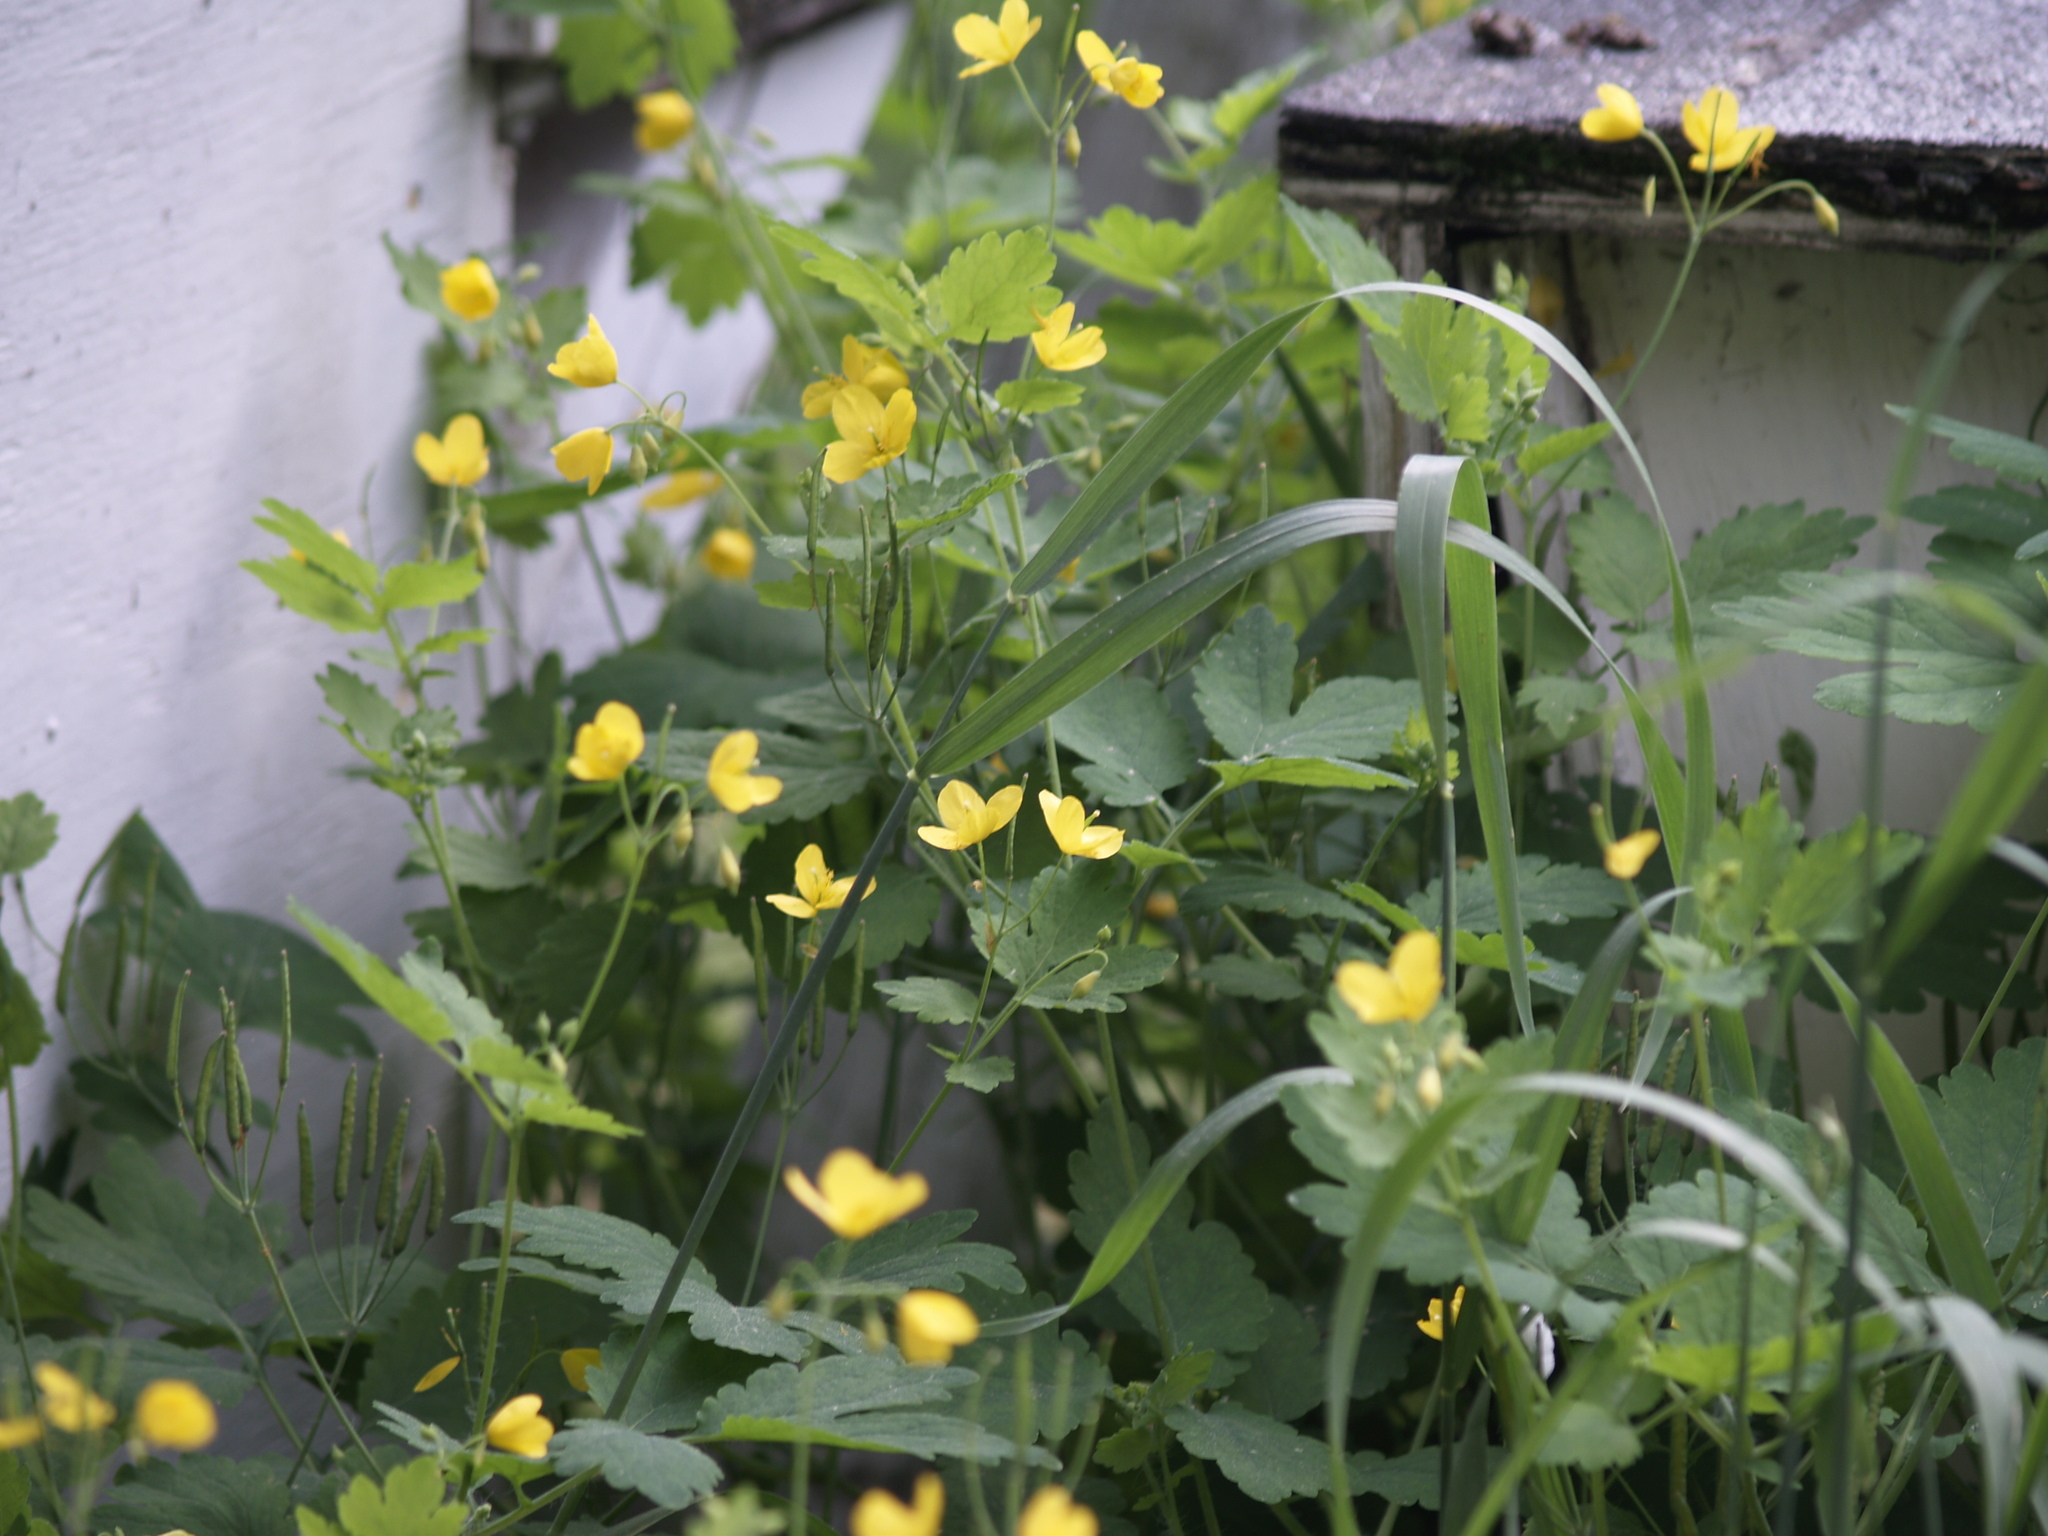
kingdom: Plantae
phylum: Tracheophyta
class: Magnoliopsida
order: Ranunculales
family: Papaveraceae
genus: Chelidonium
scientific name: Chelidonium majus
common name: Greater celandine
